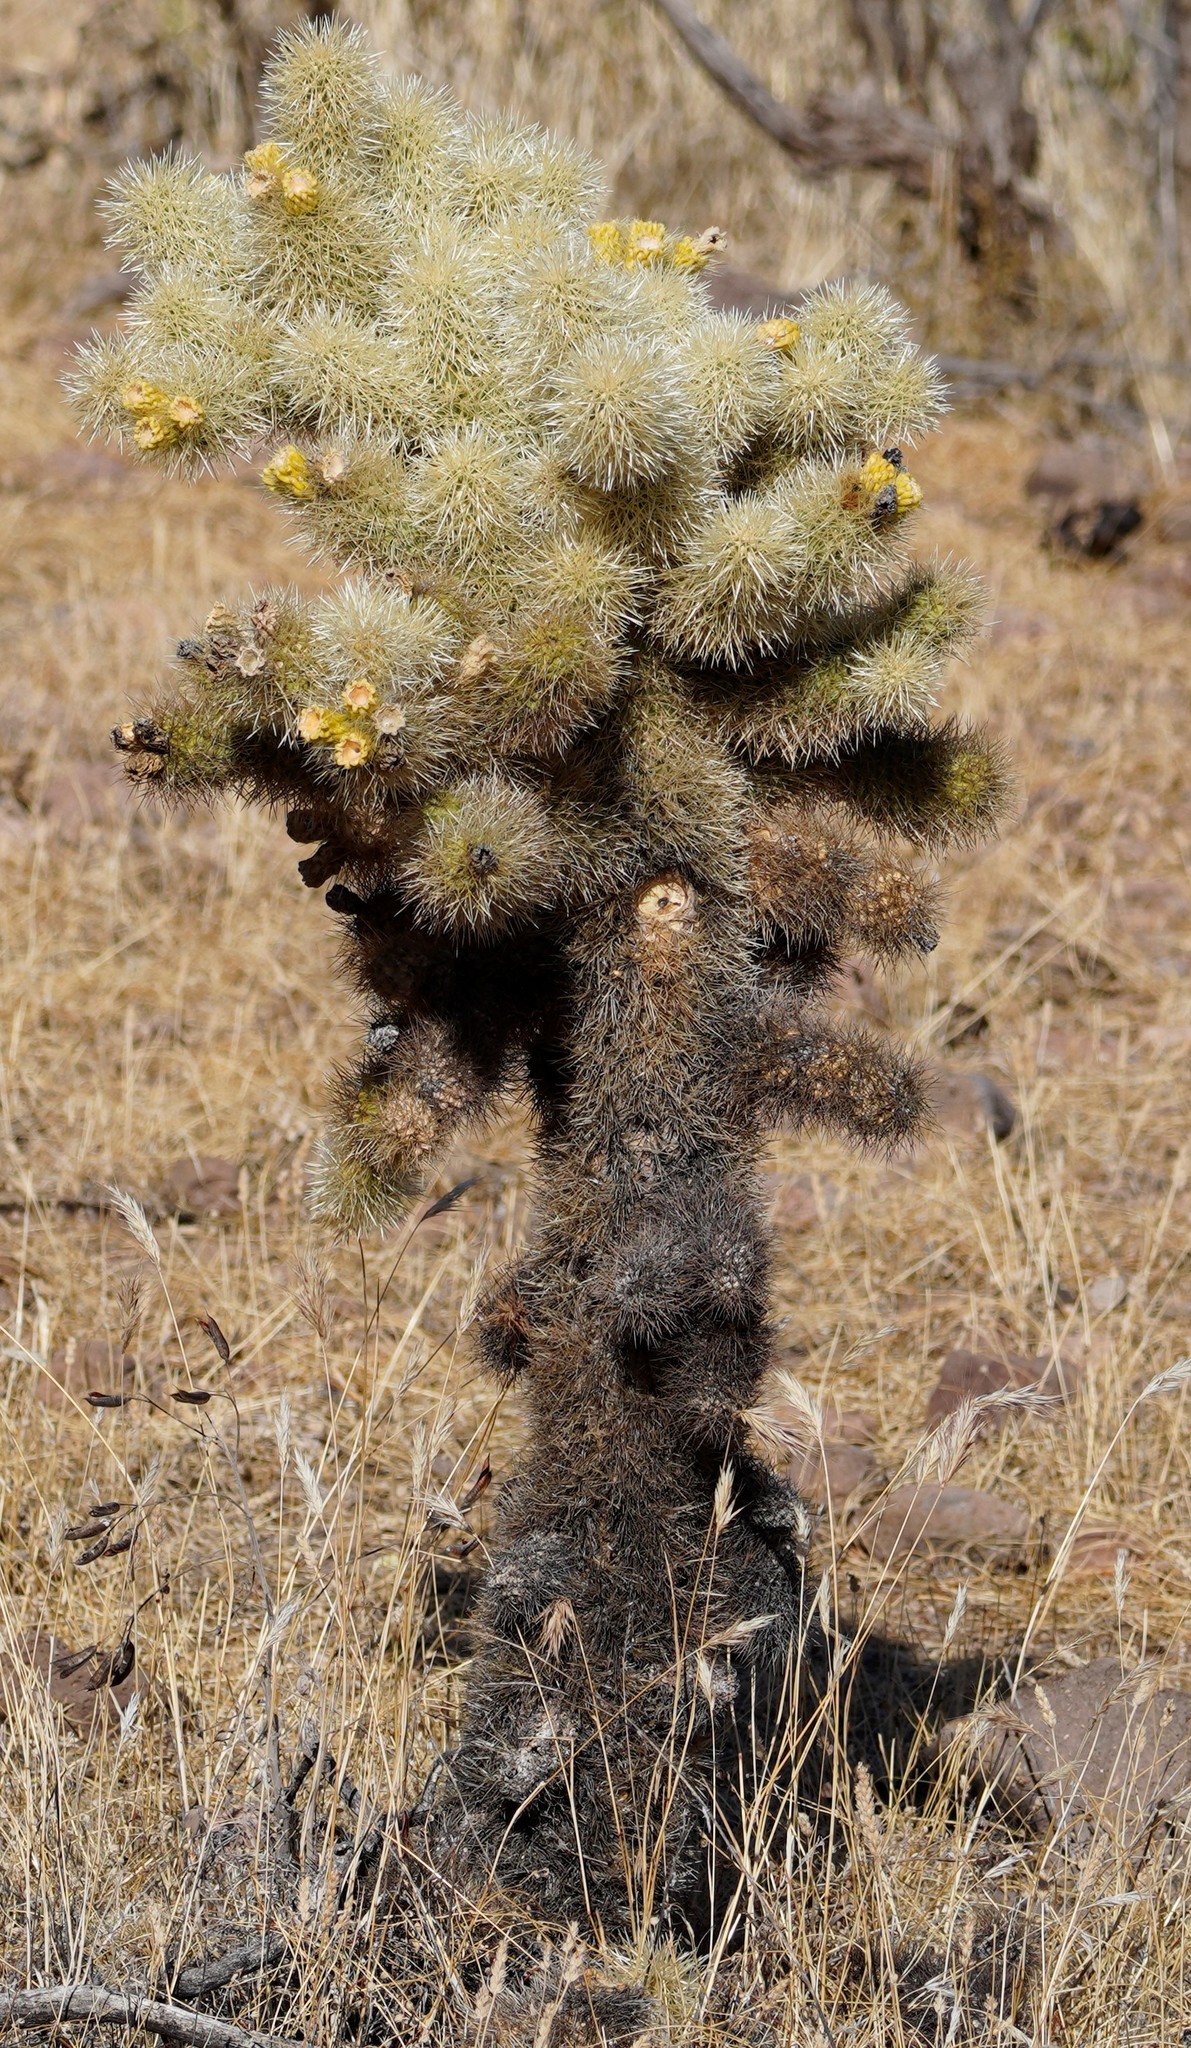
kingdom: Plantae
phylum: Tracheophyta
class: Magnoliopsida
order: Caryophyllales
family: Cactaceae
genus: Cylindropuntia
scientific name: Cylindropuntia fosbergii
